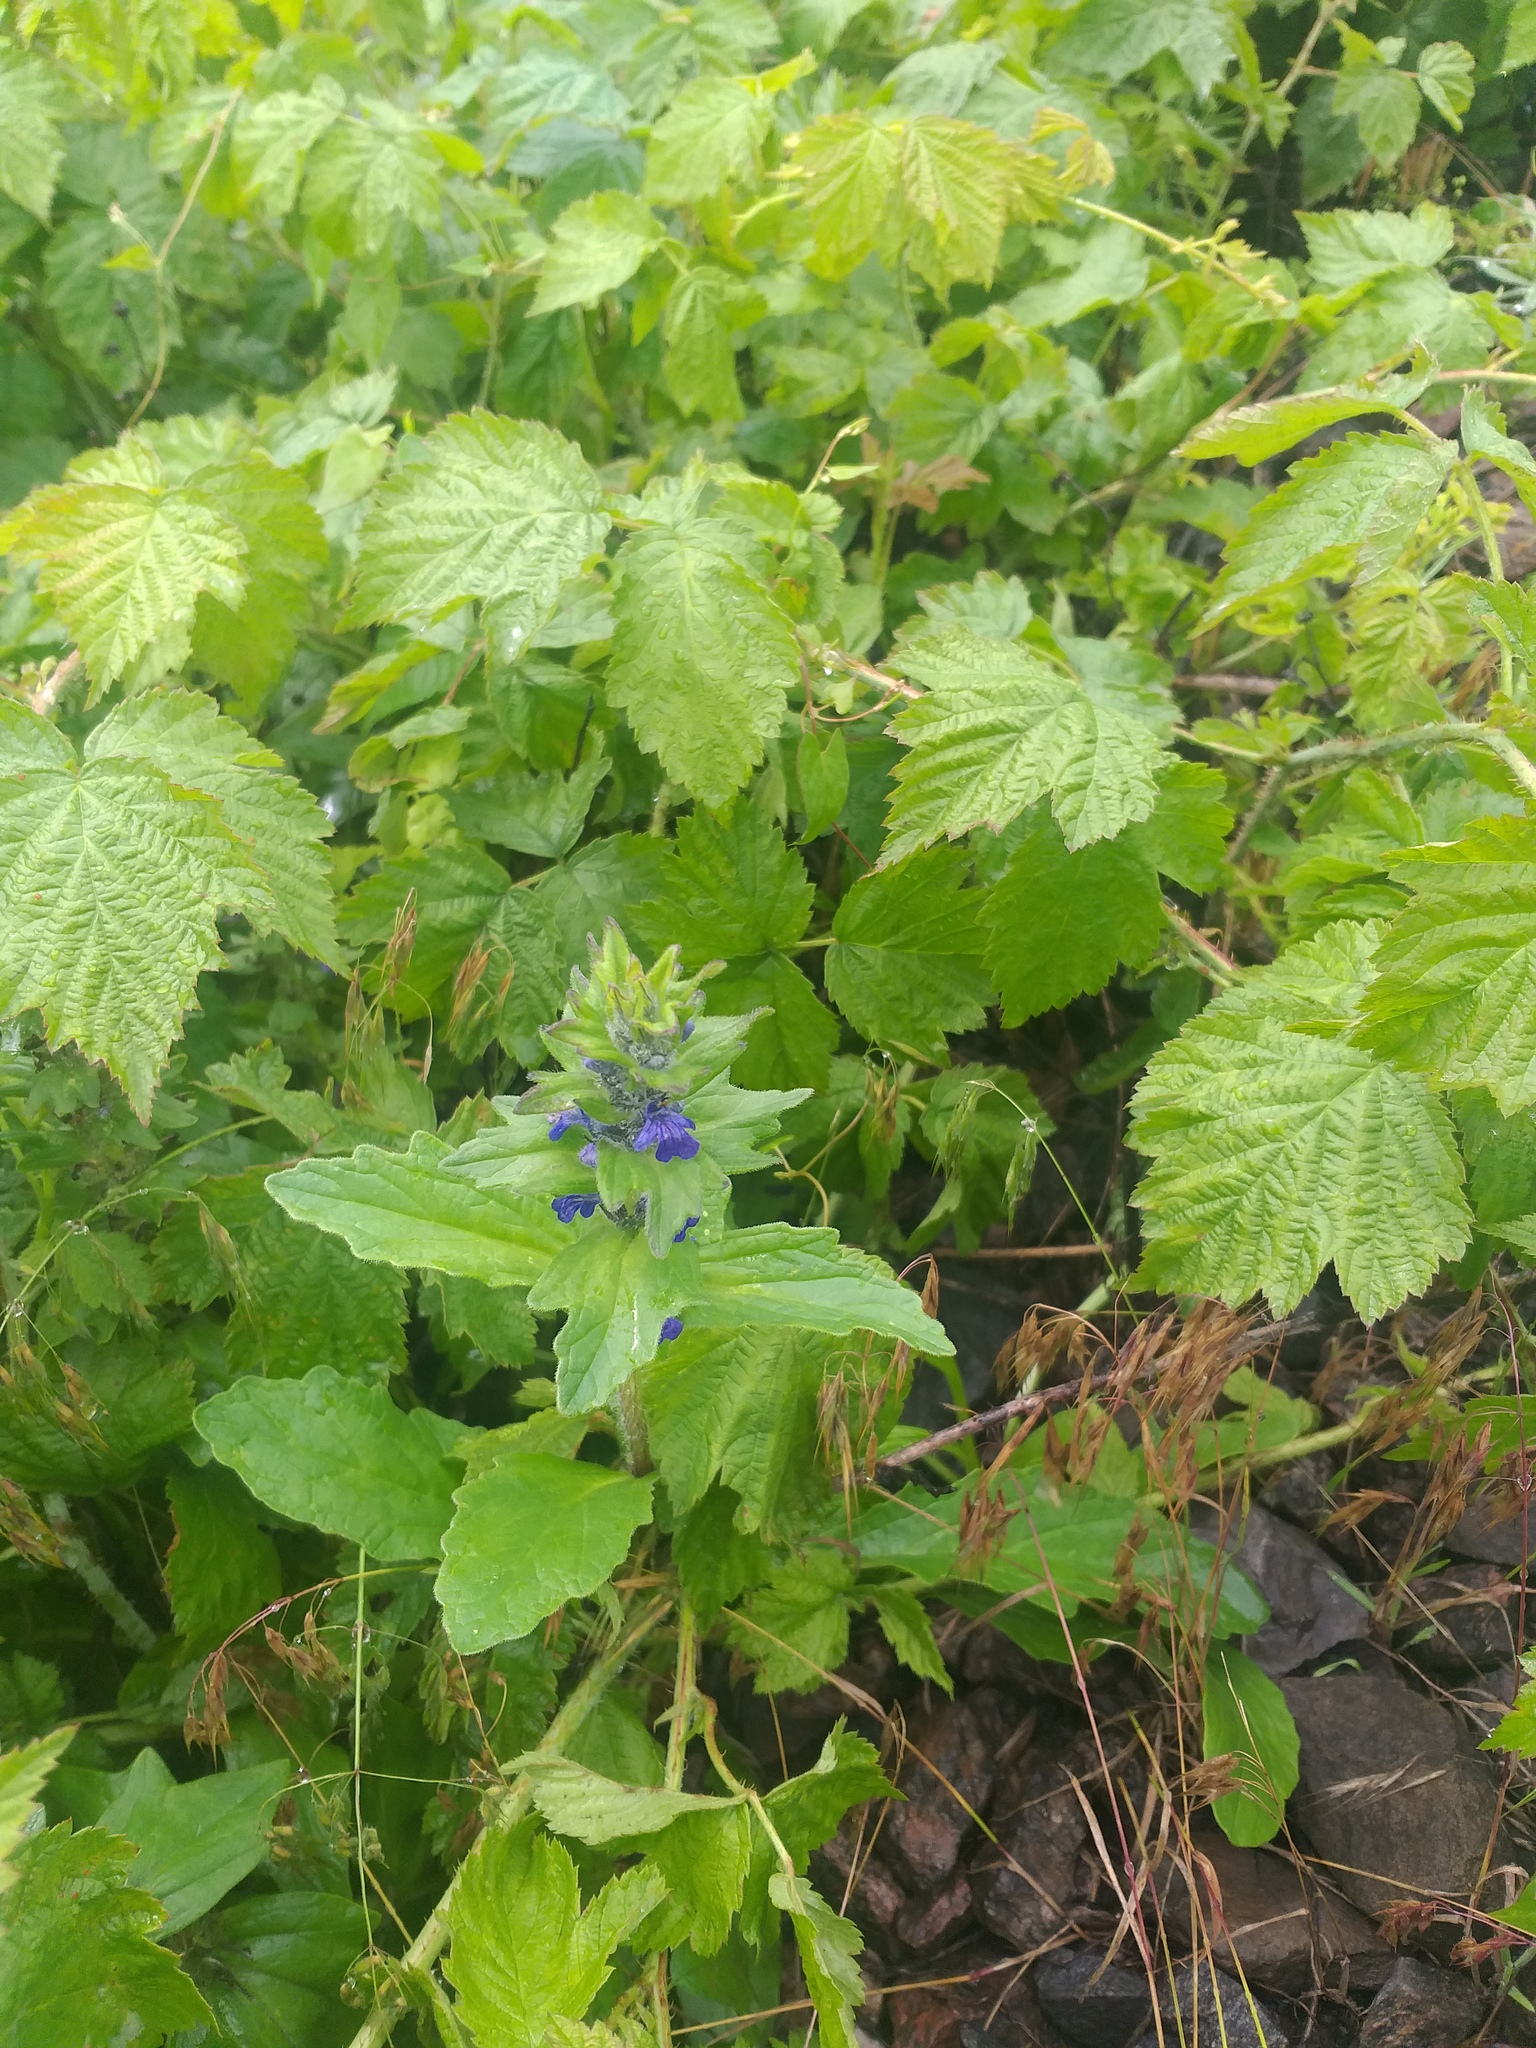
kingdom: Plantae
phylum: Tracheophyta
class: Magnoliopsida
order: Lamiales
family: Lamiaceae
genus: Ajuga
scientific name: Ajuga genevensis
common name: Blue bugle
